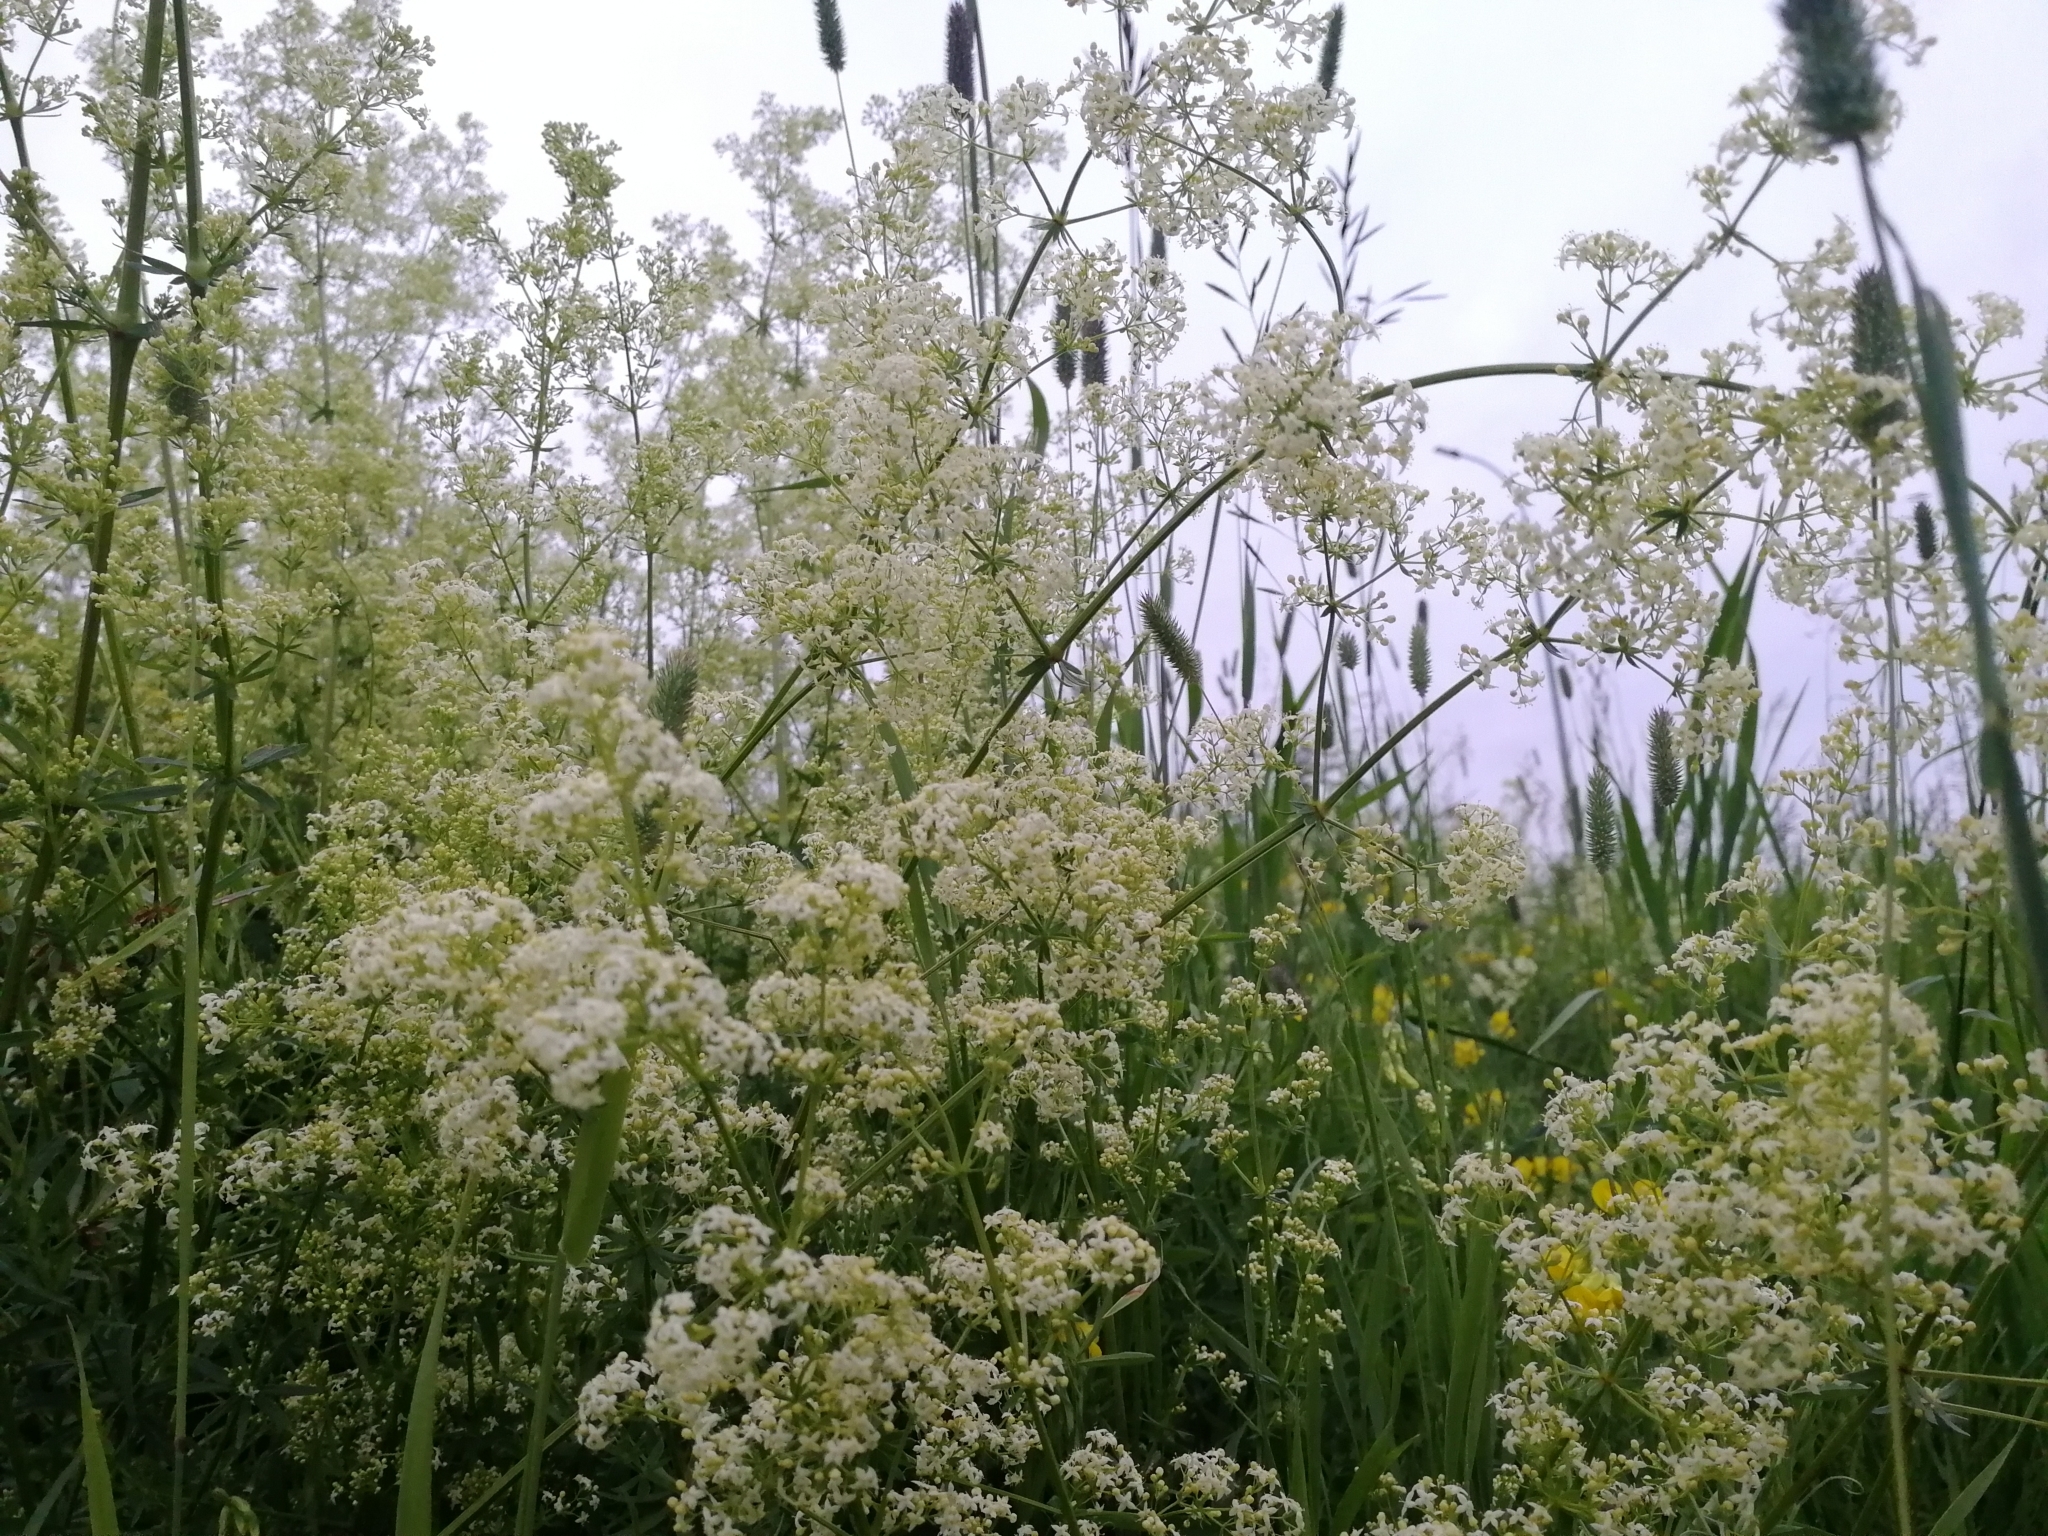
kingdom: Plantae
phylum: Tracheophyta
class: Magnoliopsida
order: Gentianales
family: Rubiaceae
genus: Galium
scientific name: Galium mollugo
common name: Hedge bedstraw
